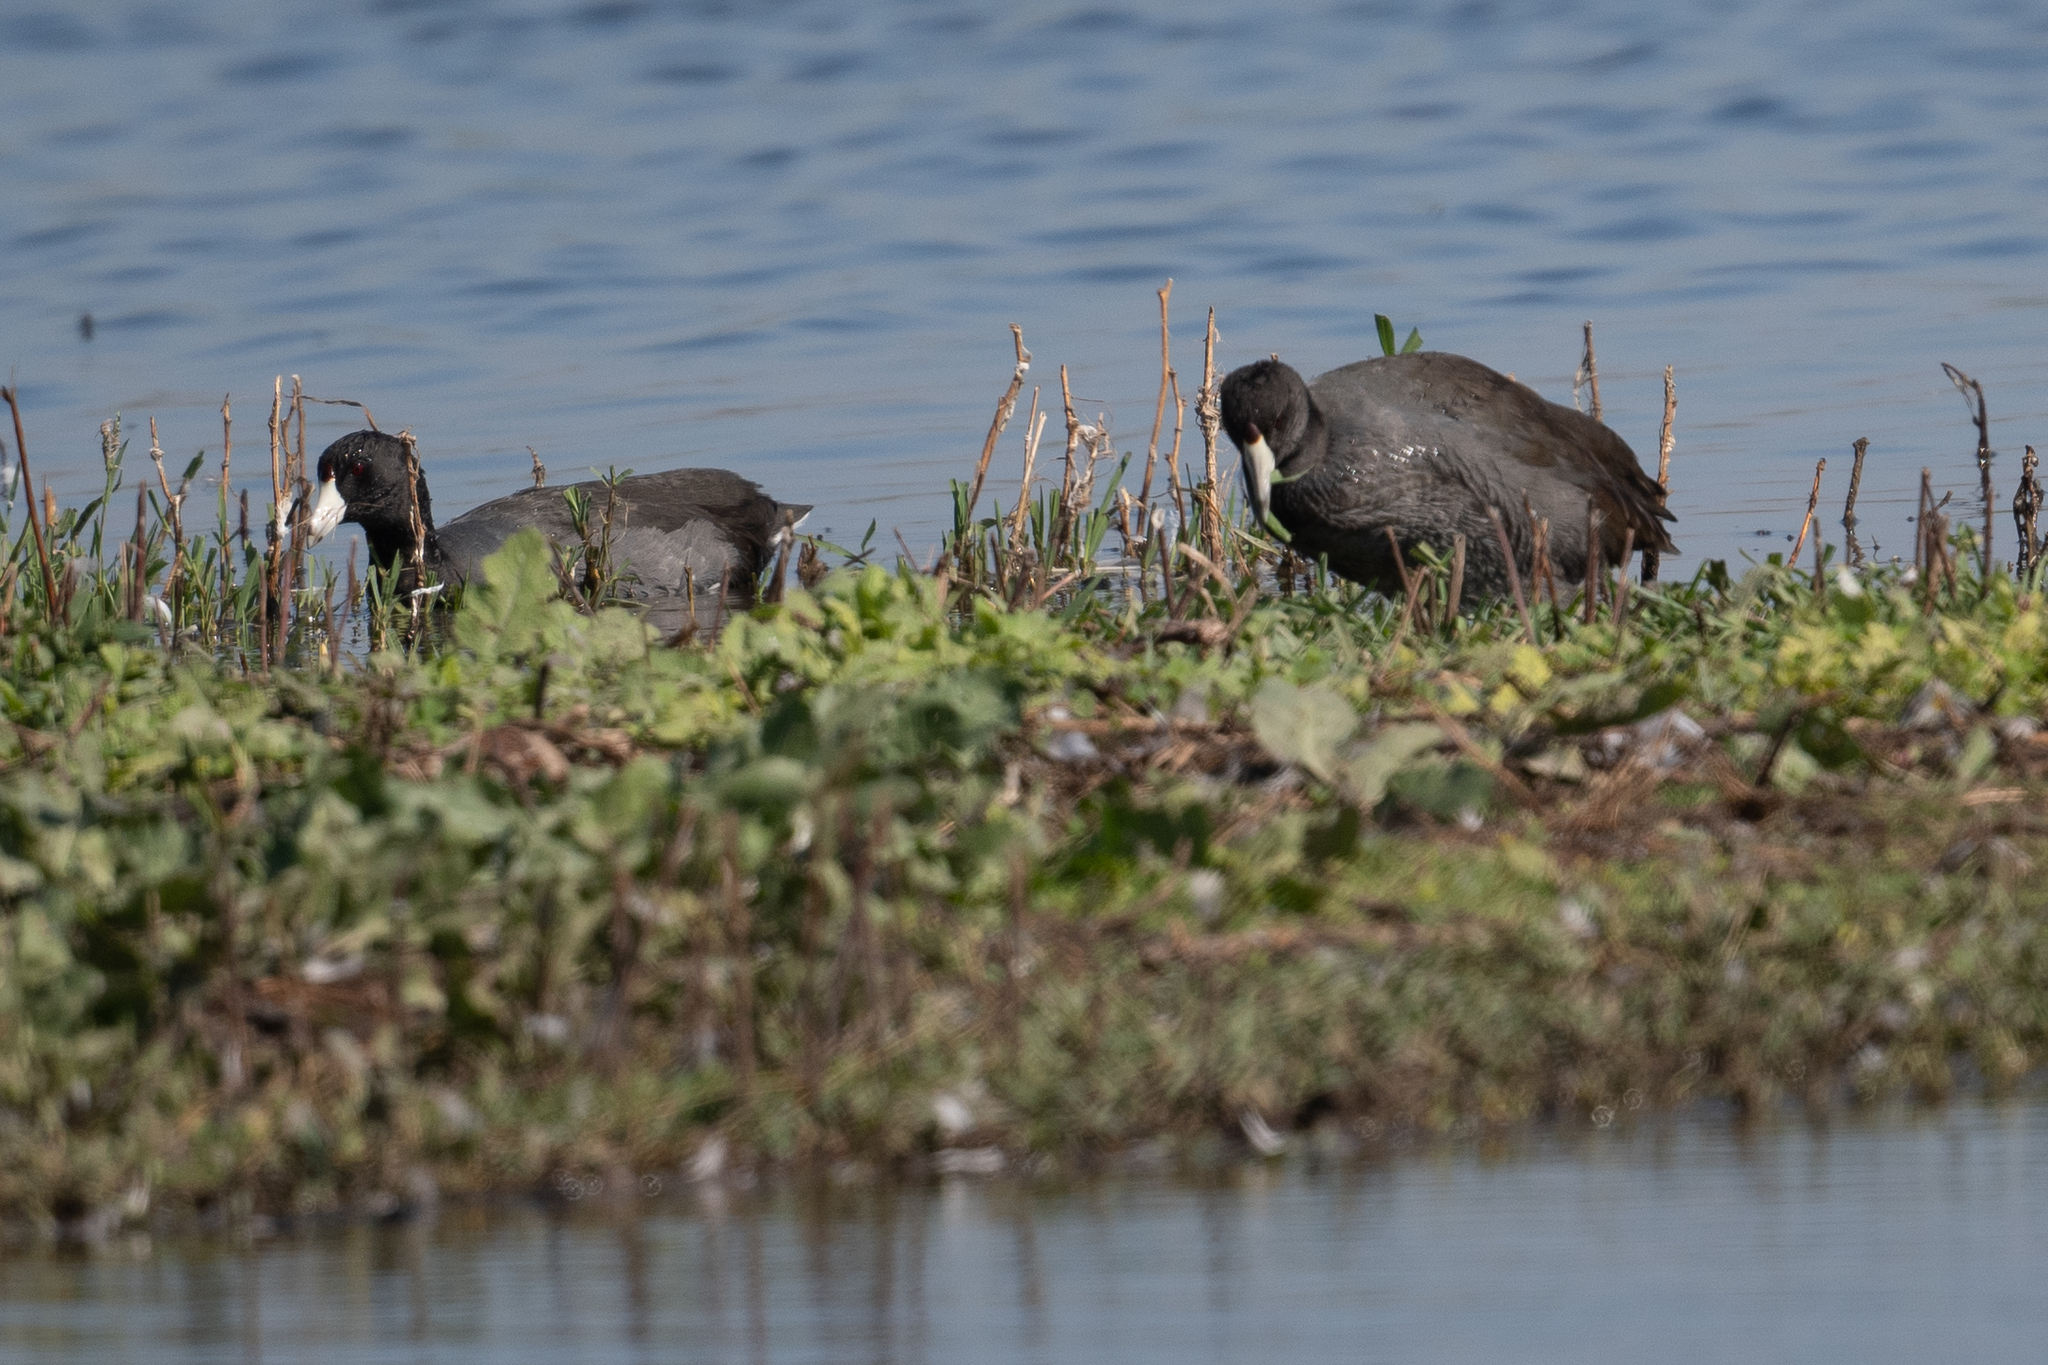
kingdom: Animalia
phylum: Chordata
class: Aves
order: Gruiformes
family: Rallidae
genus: Fulica
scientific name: Fulica americana
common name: American coot
